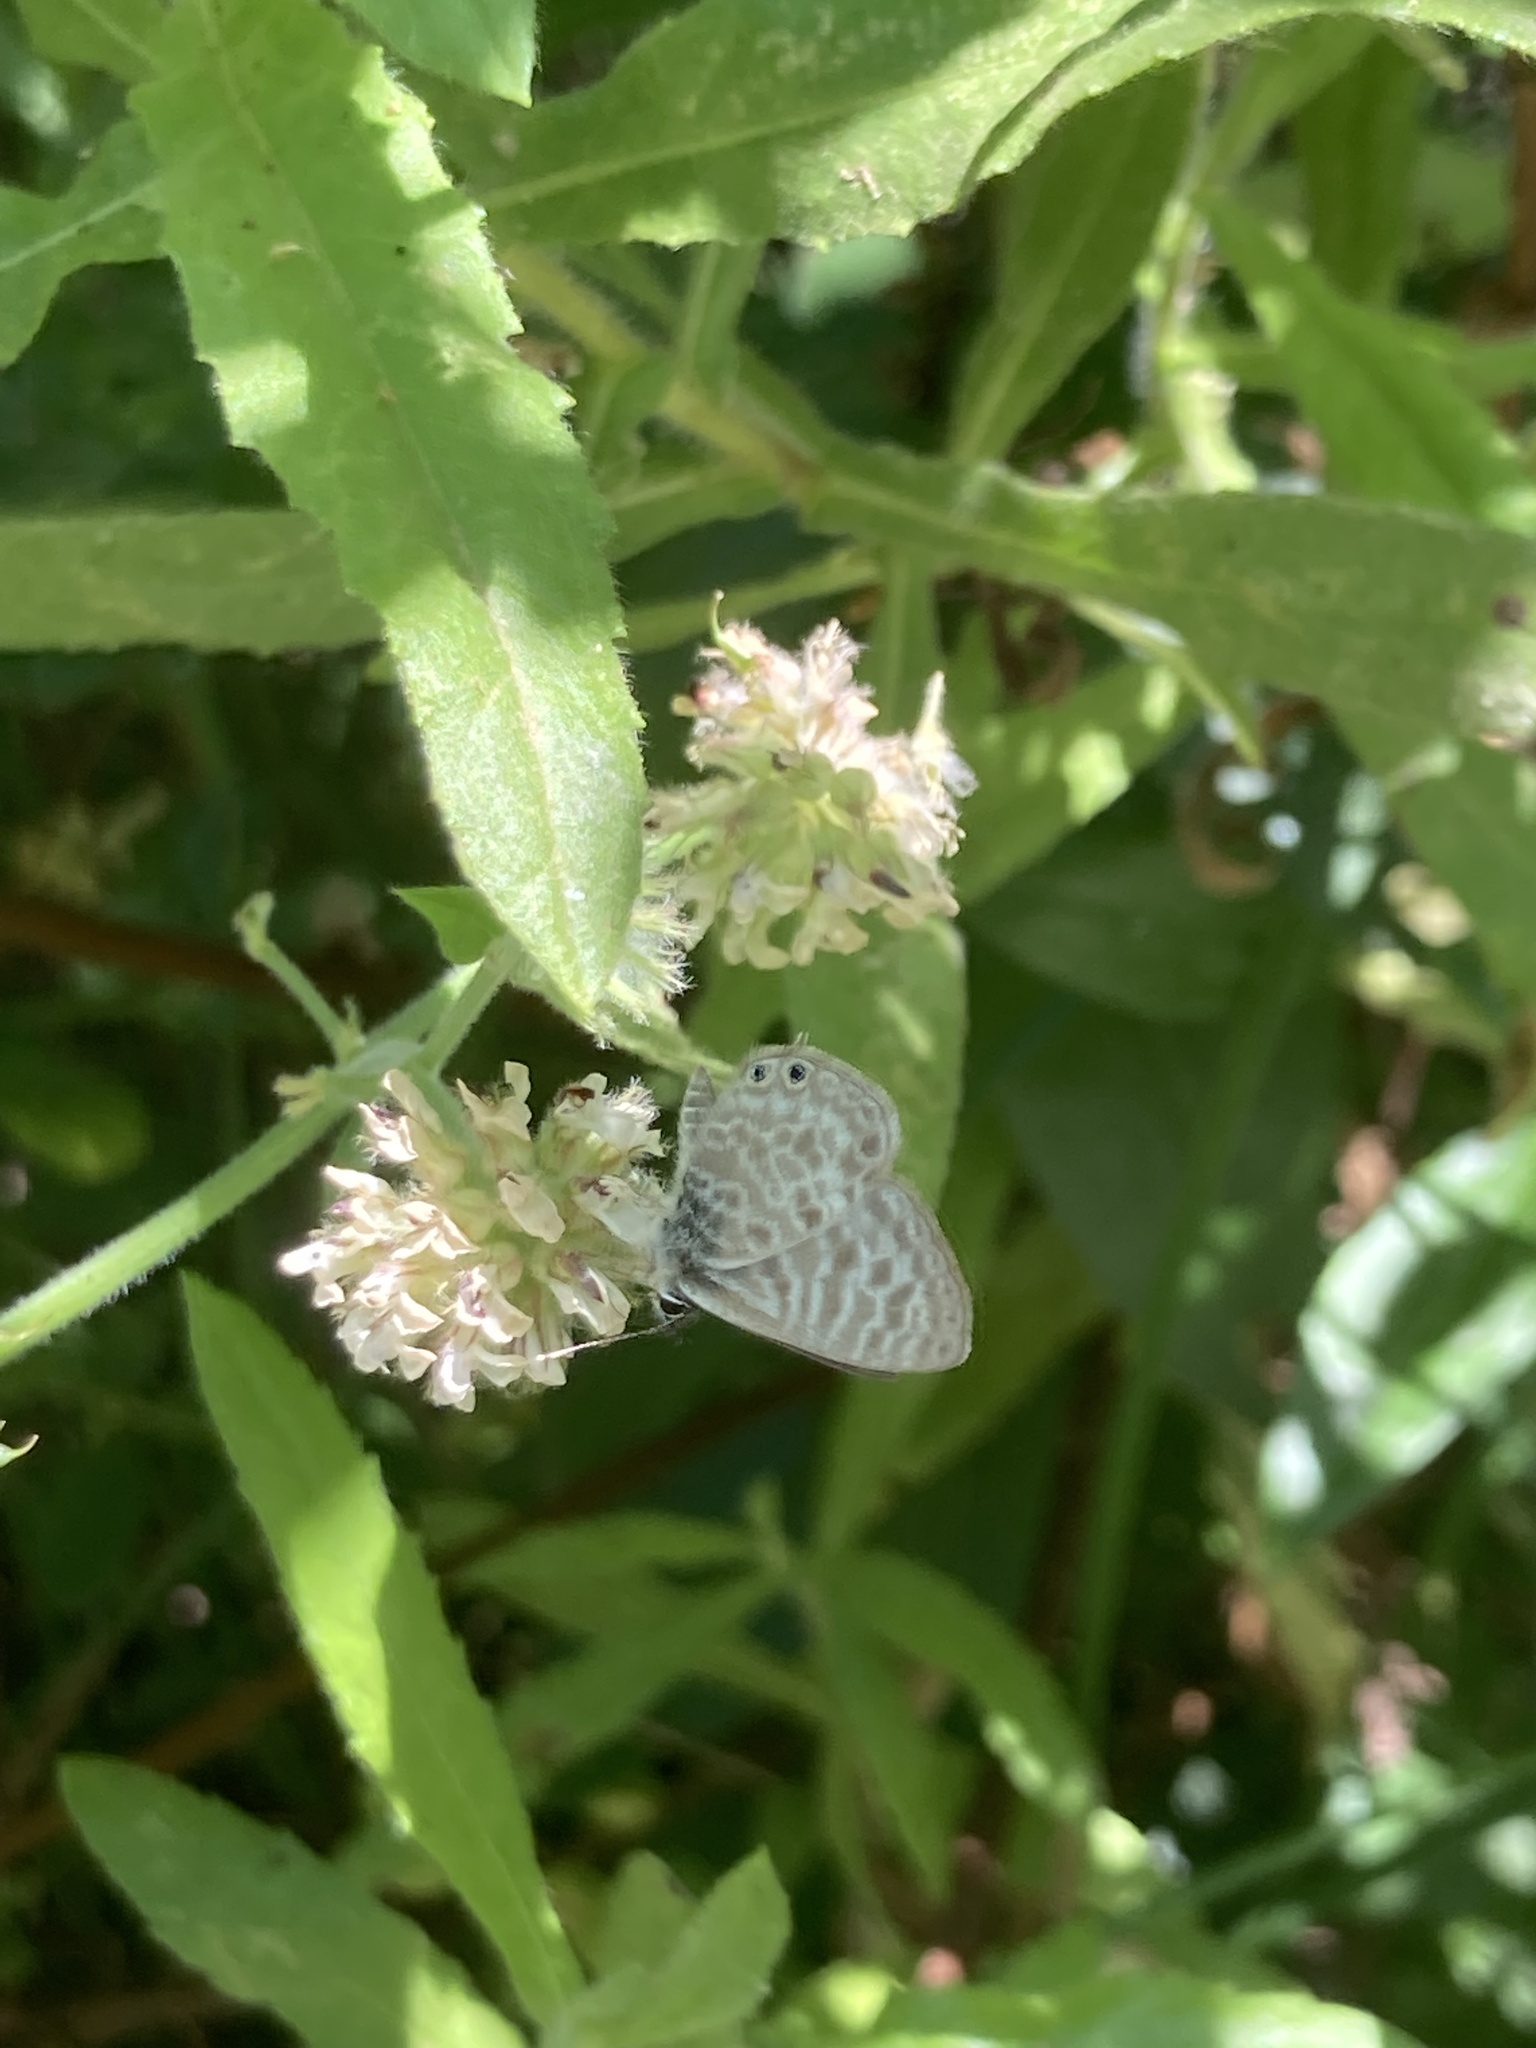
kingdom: Animalia
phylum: Arthropoda
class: Insecta
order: Lepidoptera
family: Lycaenidae
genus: Leptotes
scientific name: Leptotes pirithous
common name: Lang's short-tailed blue
